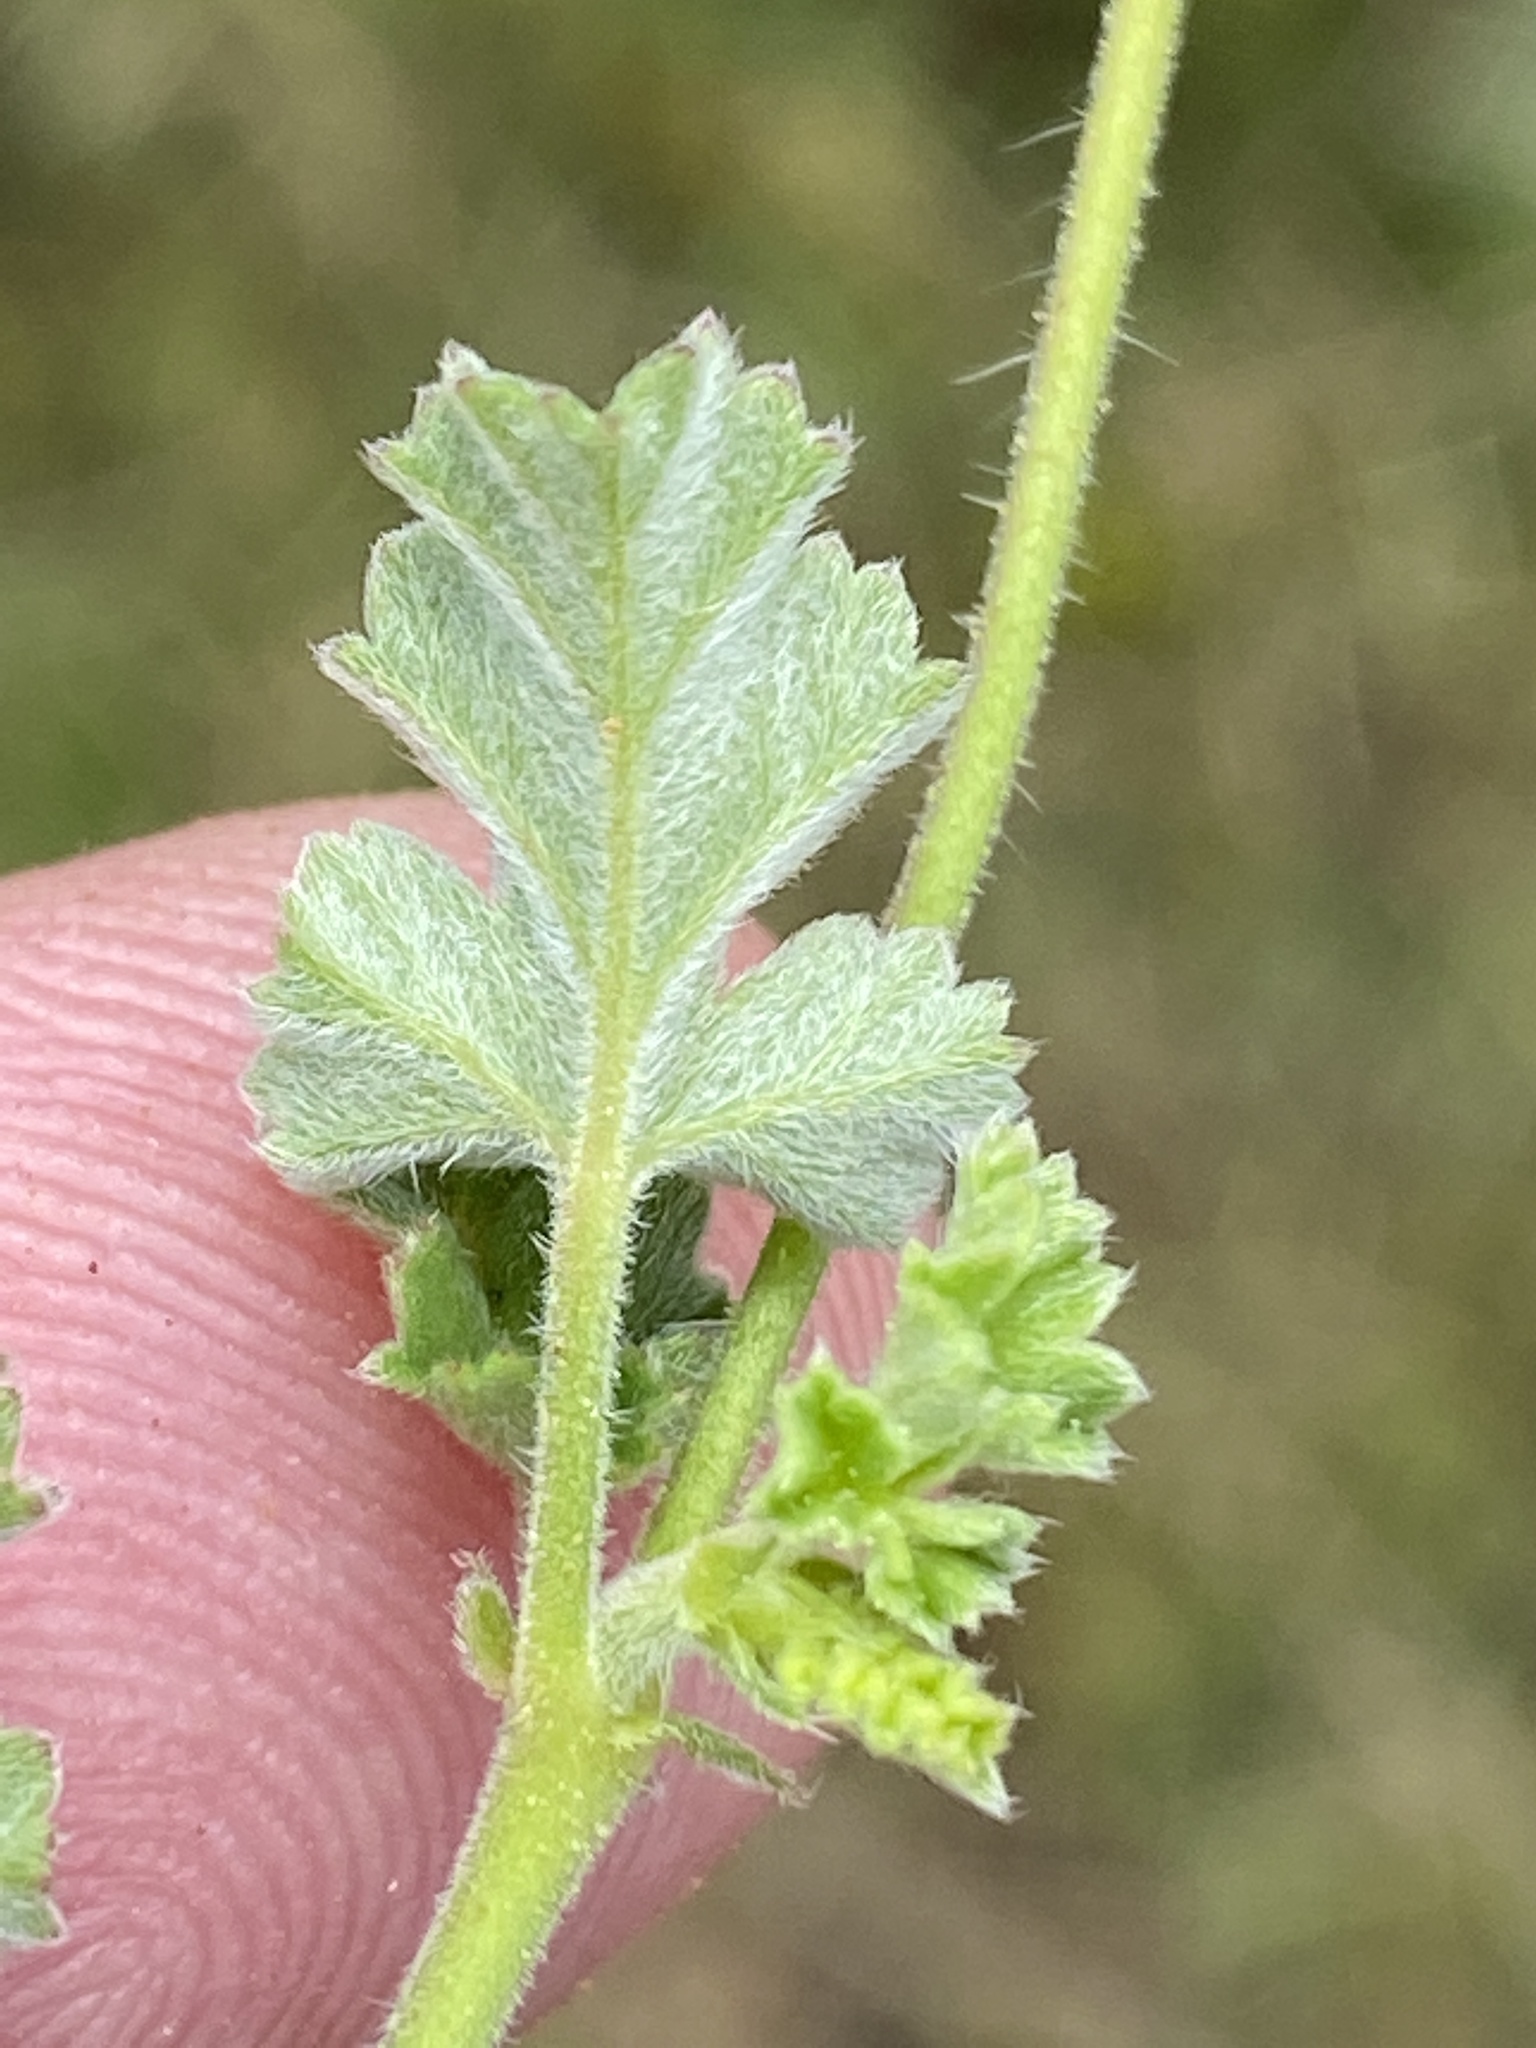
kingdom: Plantae
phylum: Tracheophyta
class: Magnoliopsida
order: Geraniales
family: Geraniaceae
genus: Pelargonium
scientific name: Pelargonium candicans
